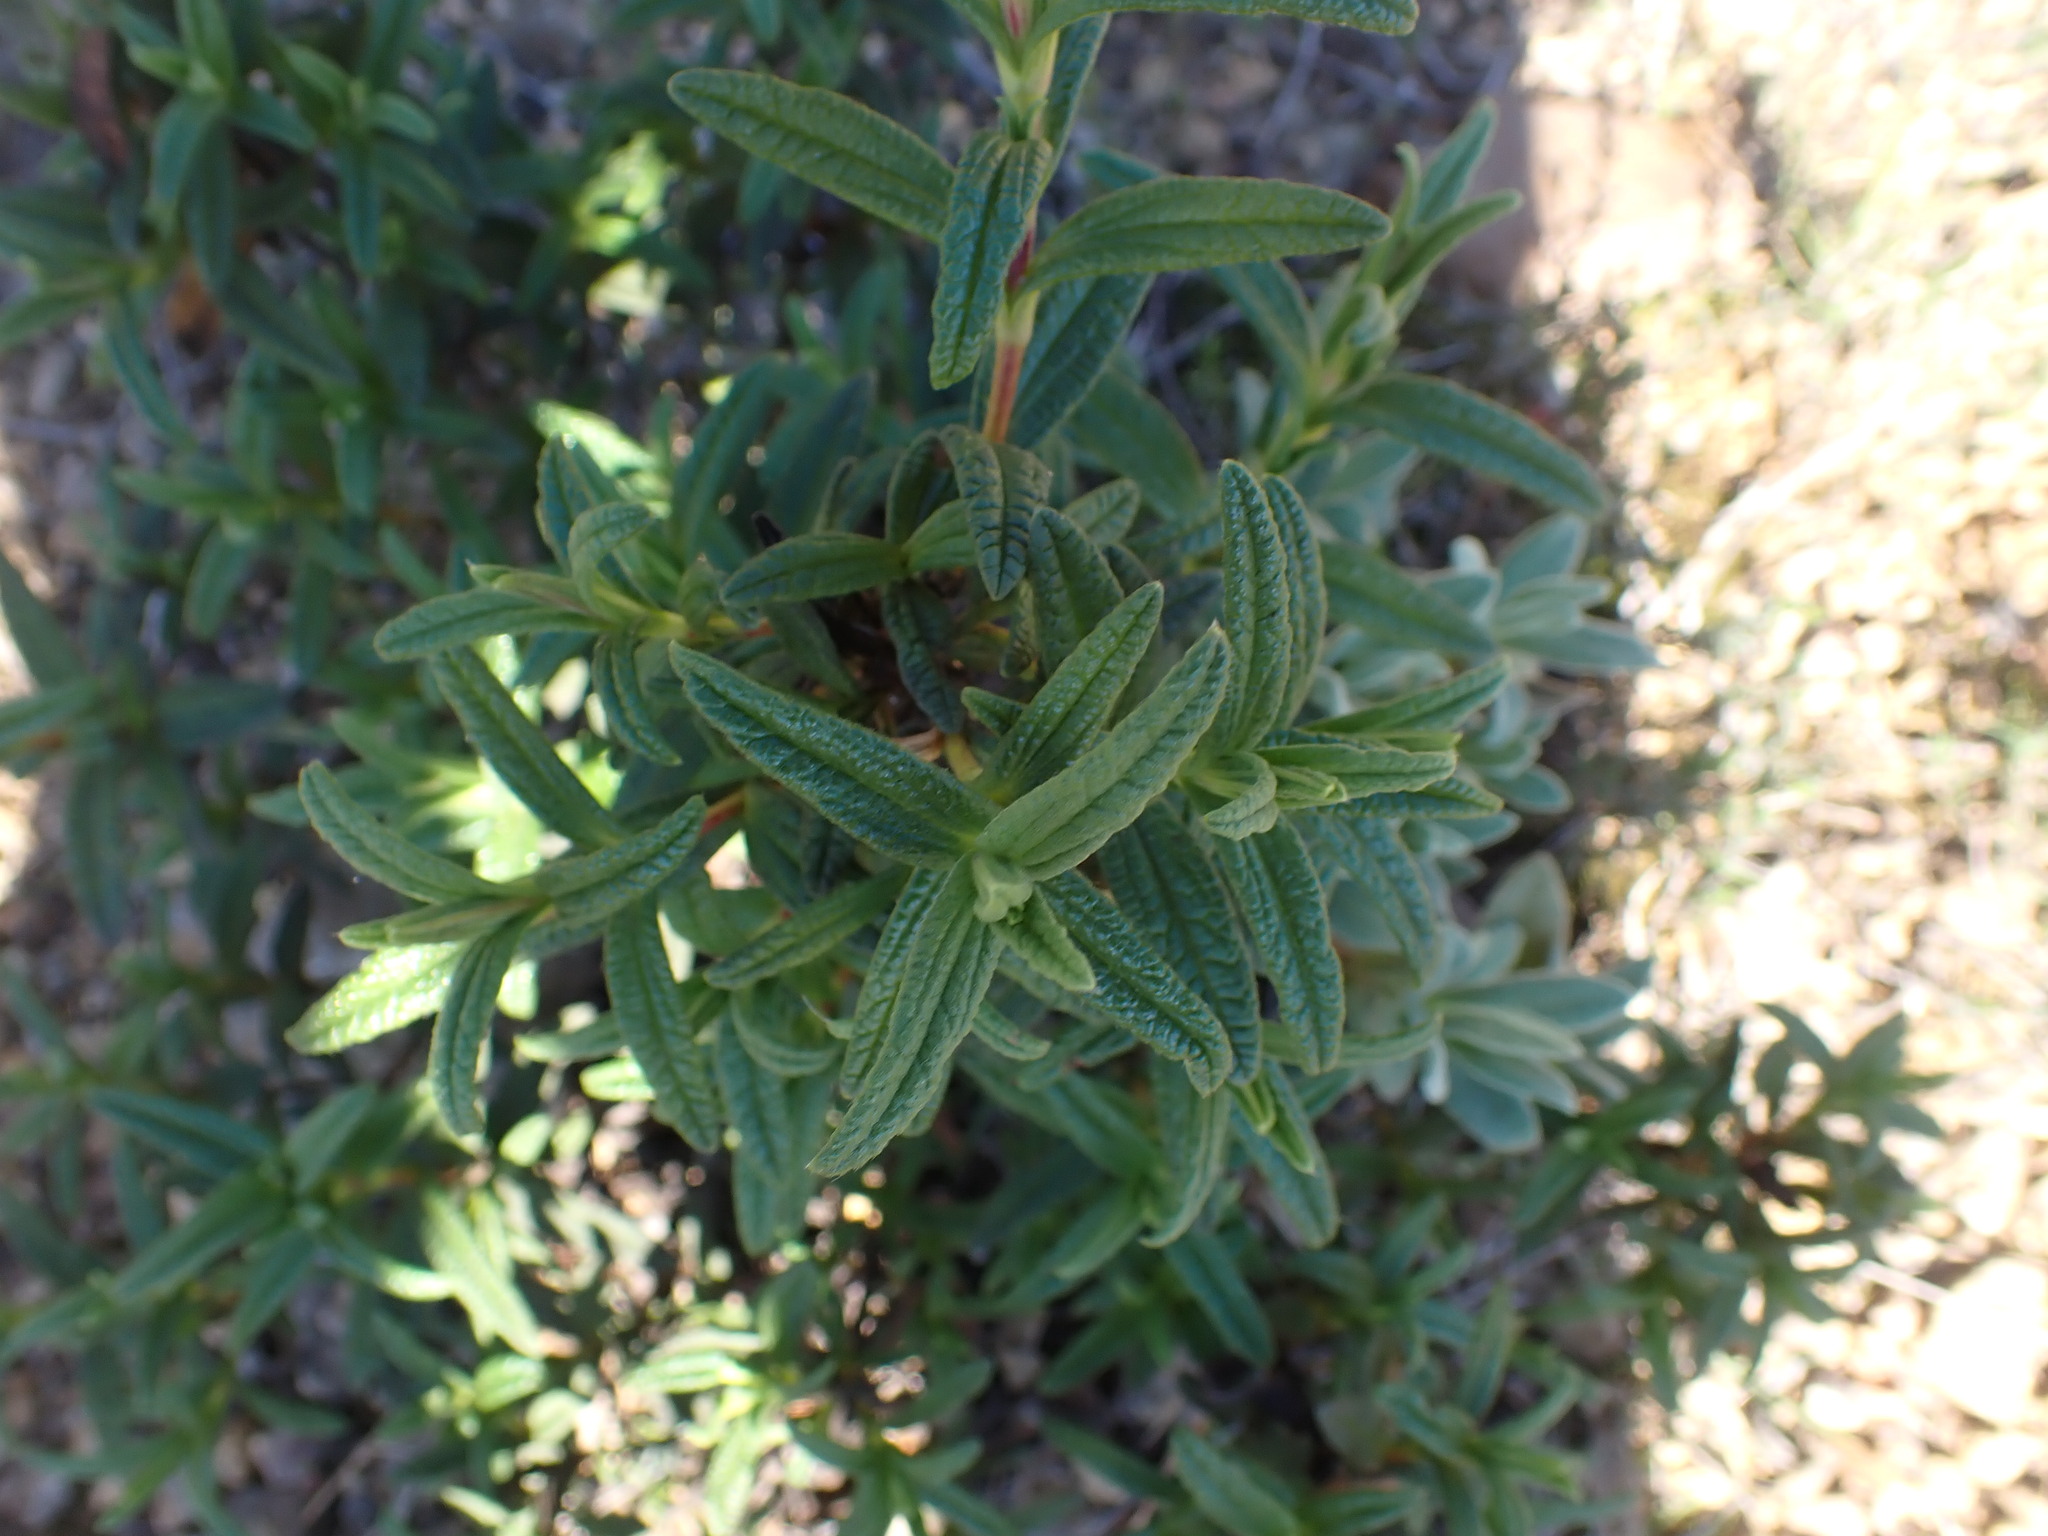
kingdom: Plantae
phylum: Tracheophyta
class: Magnoliopsida
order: Malvales
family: Cistaceae
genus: Cistus
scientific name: Cistus monspeliensis
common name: Montpelier cistus
